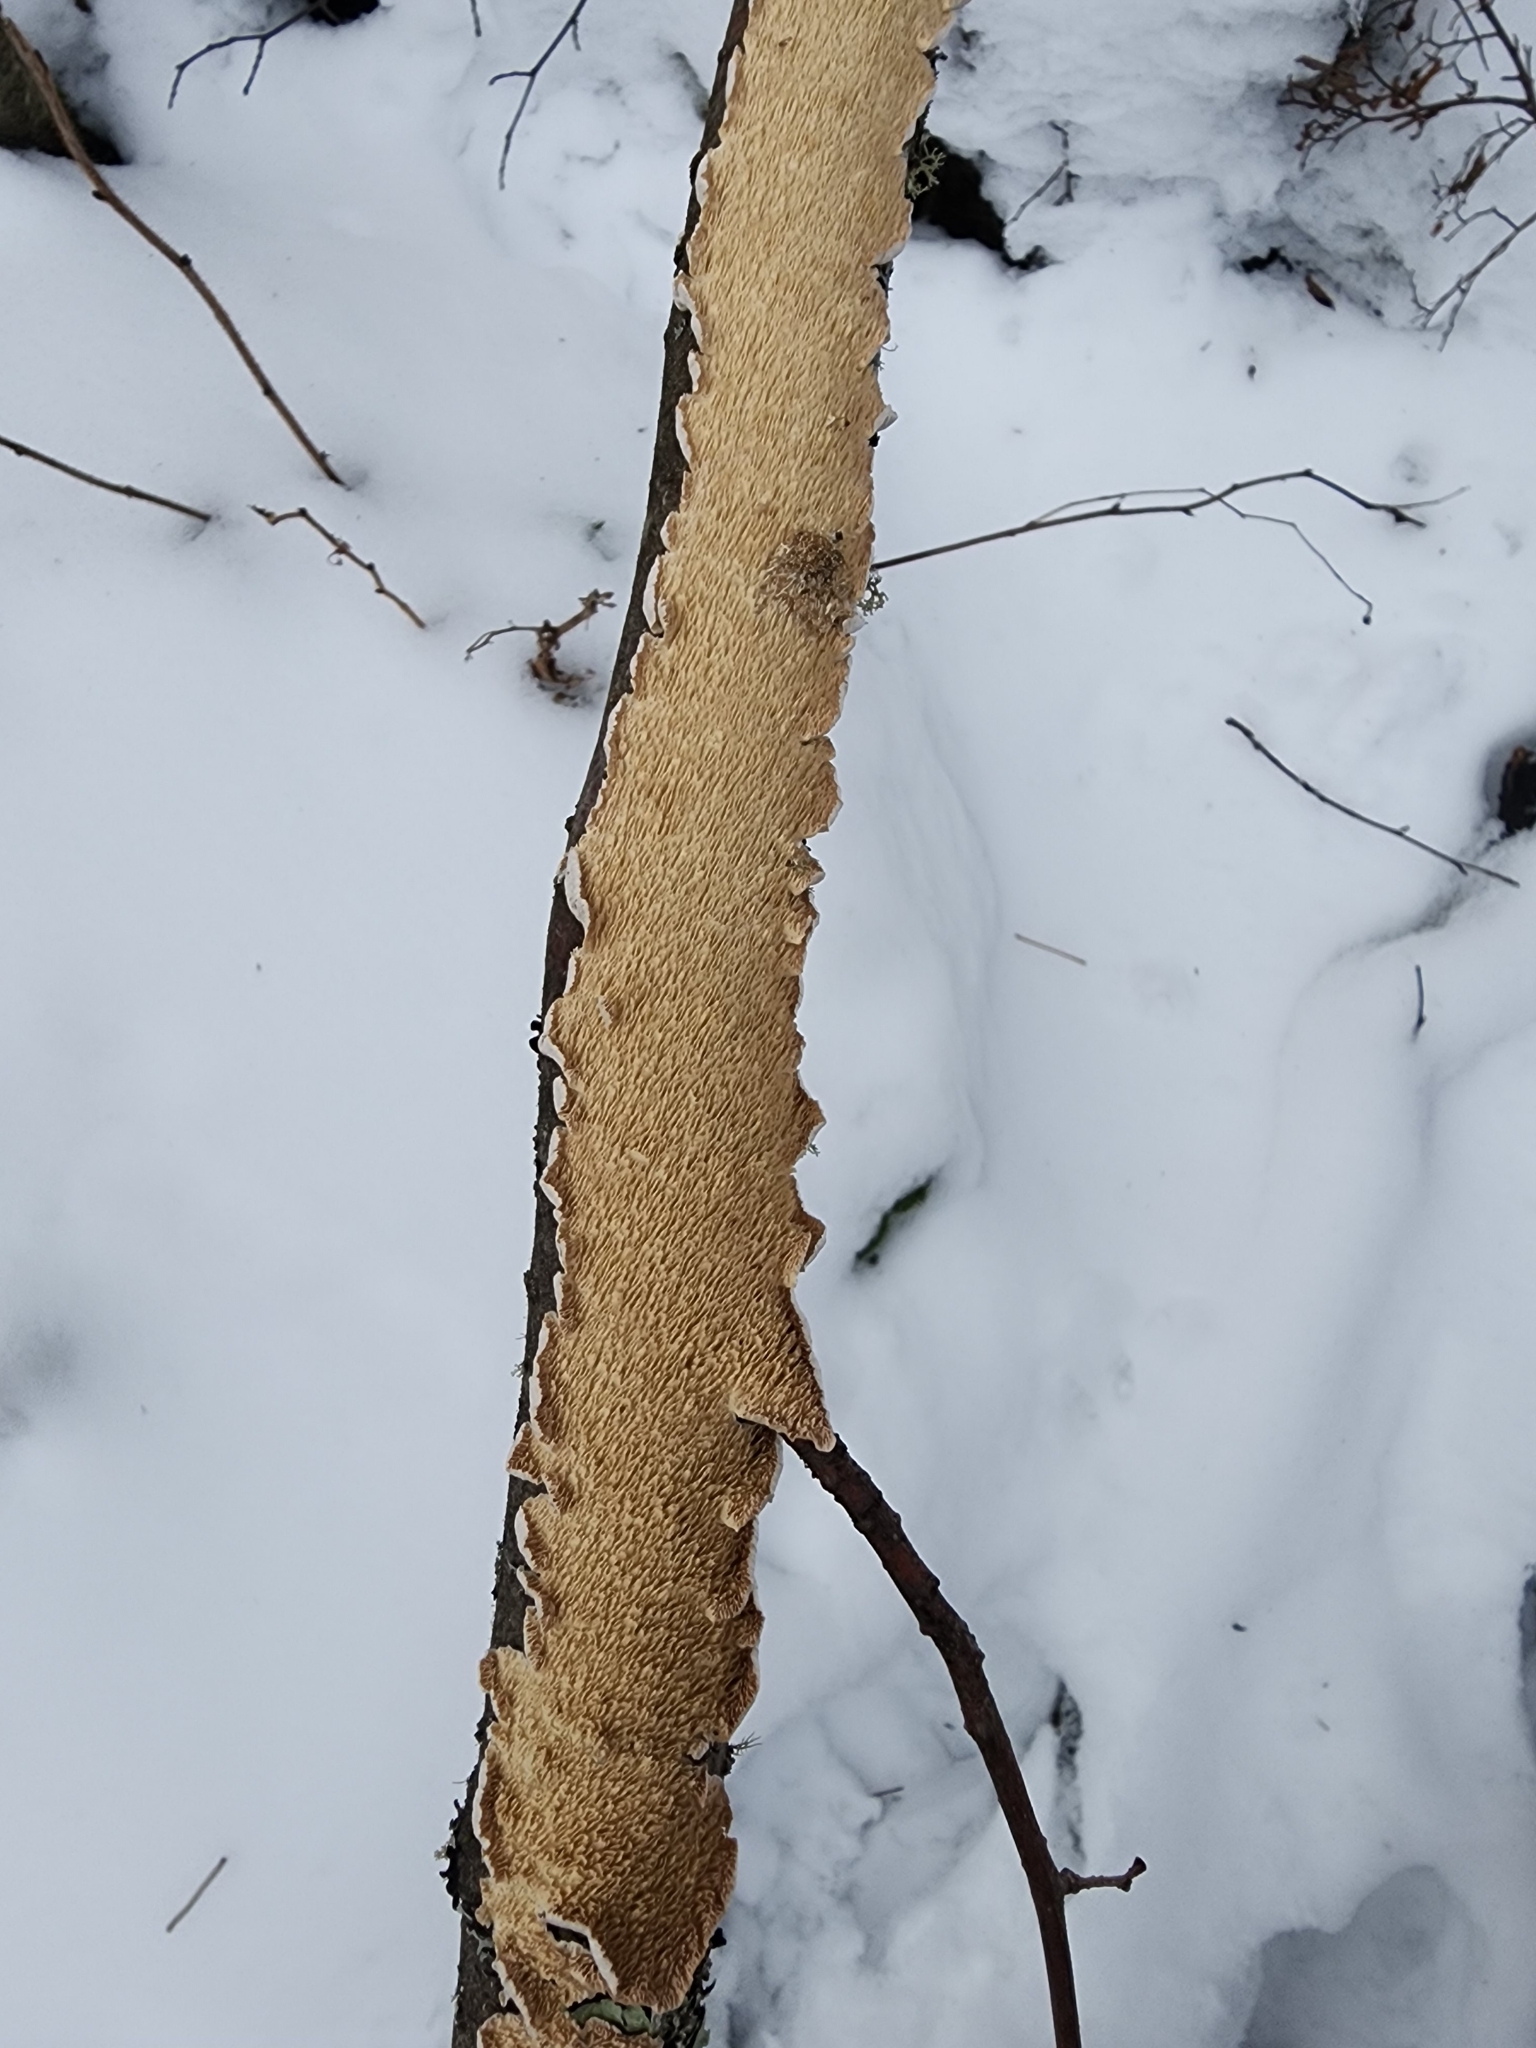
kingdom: Fungi
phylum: Basidiomycota
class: Agaricomycetes
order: Polyporales
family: Irpicaceae
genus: Irpex
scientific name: Irpex lacteus
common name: Milk-white toothed polypore
